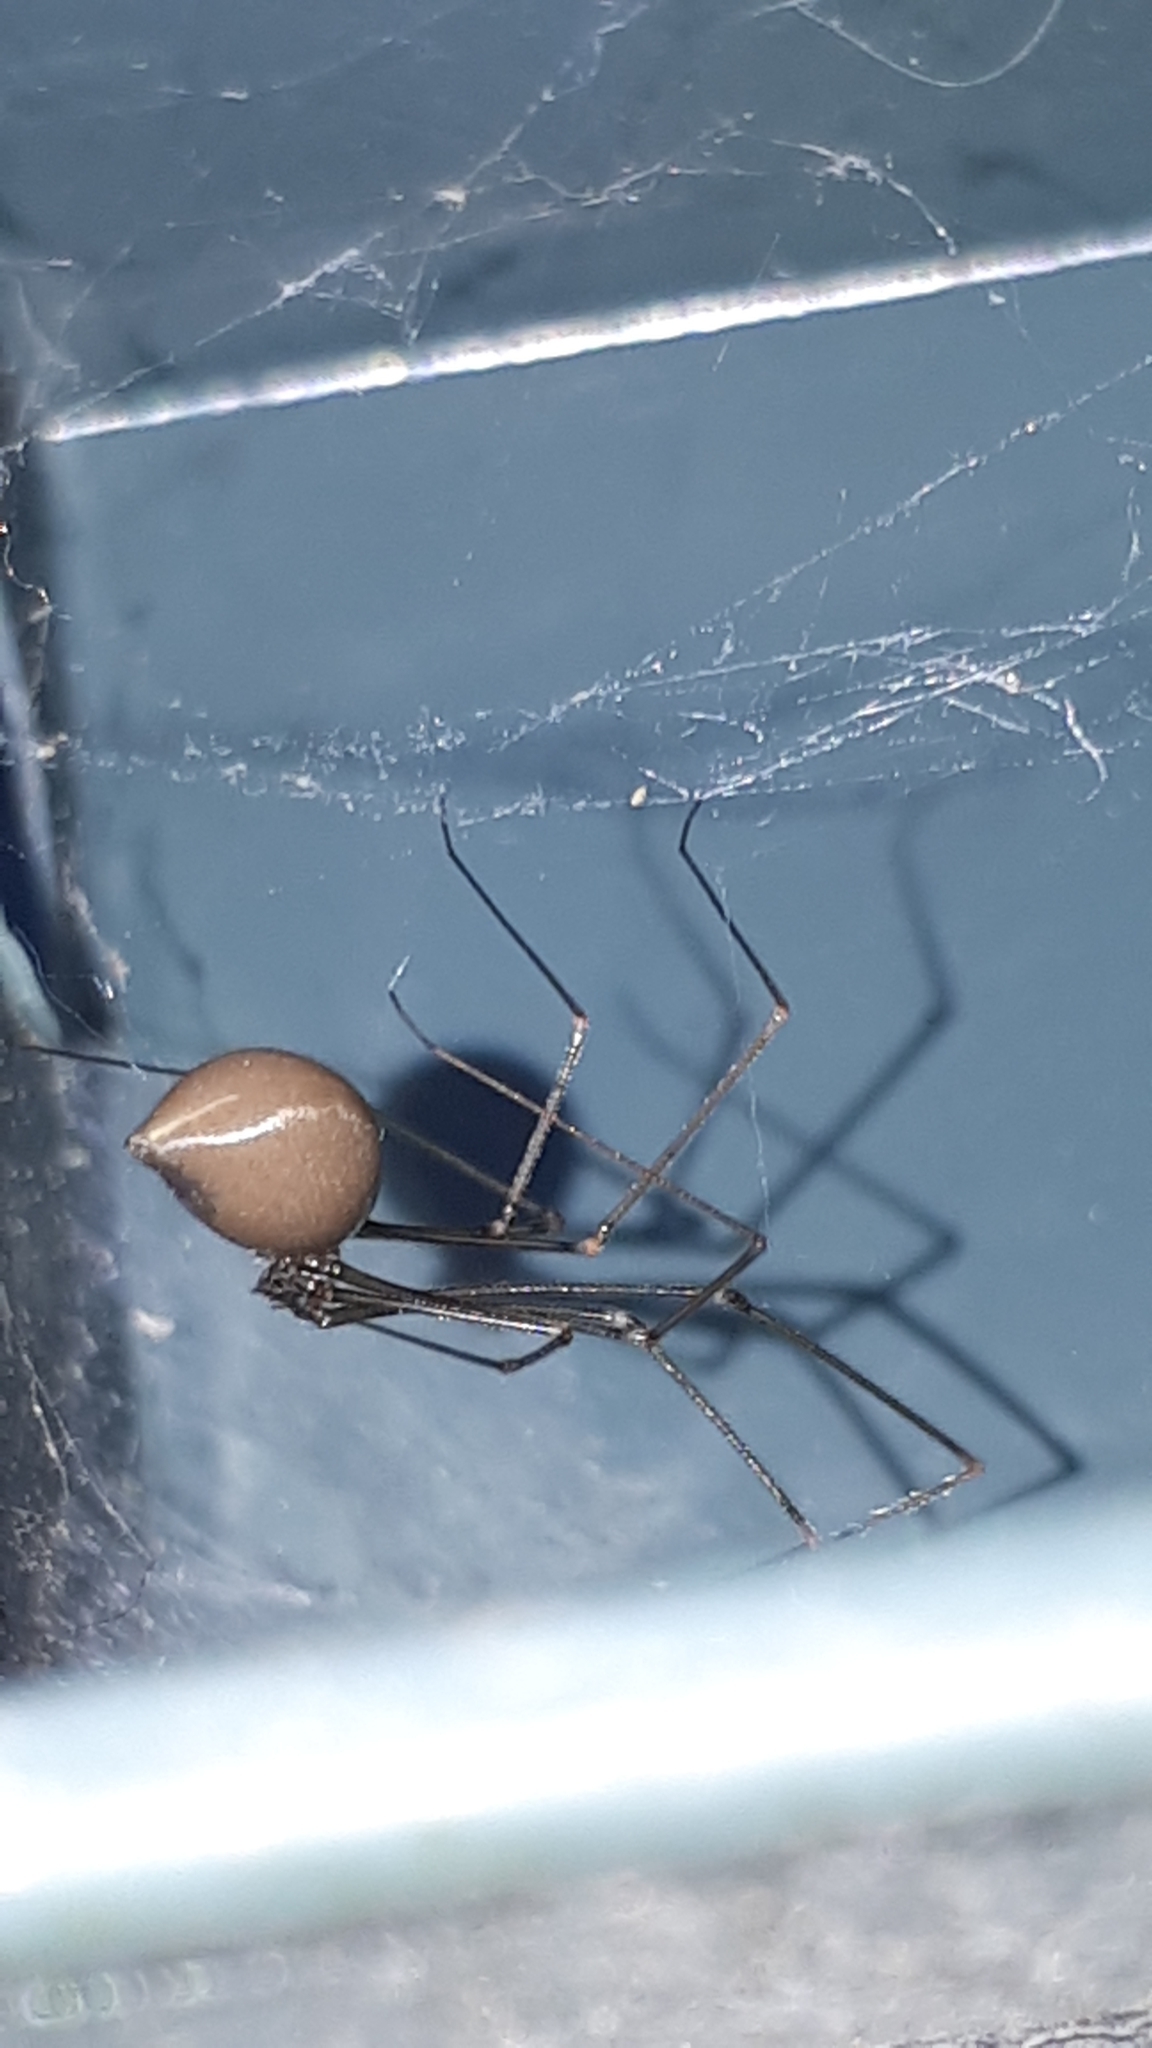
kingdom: Animalia
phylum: Arthropoda
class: Arachnida
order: Araneae
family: Pholcidae
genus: Pholcus
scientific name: Pholcus opilionoides
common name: Daddylongleg spider
